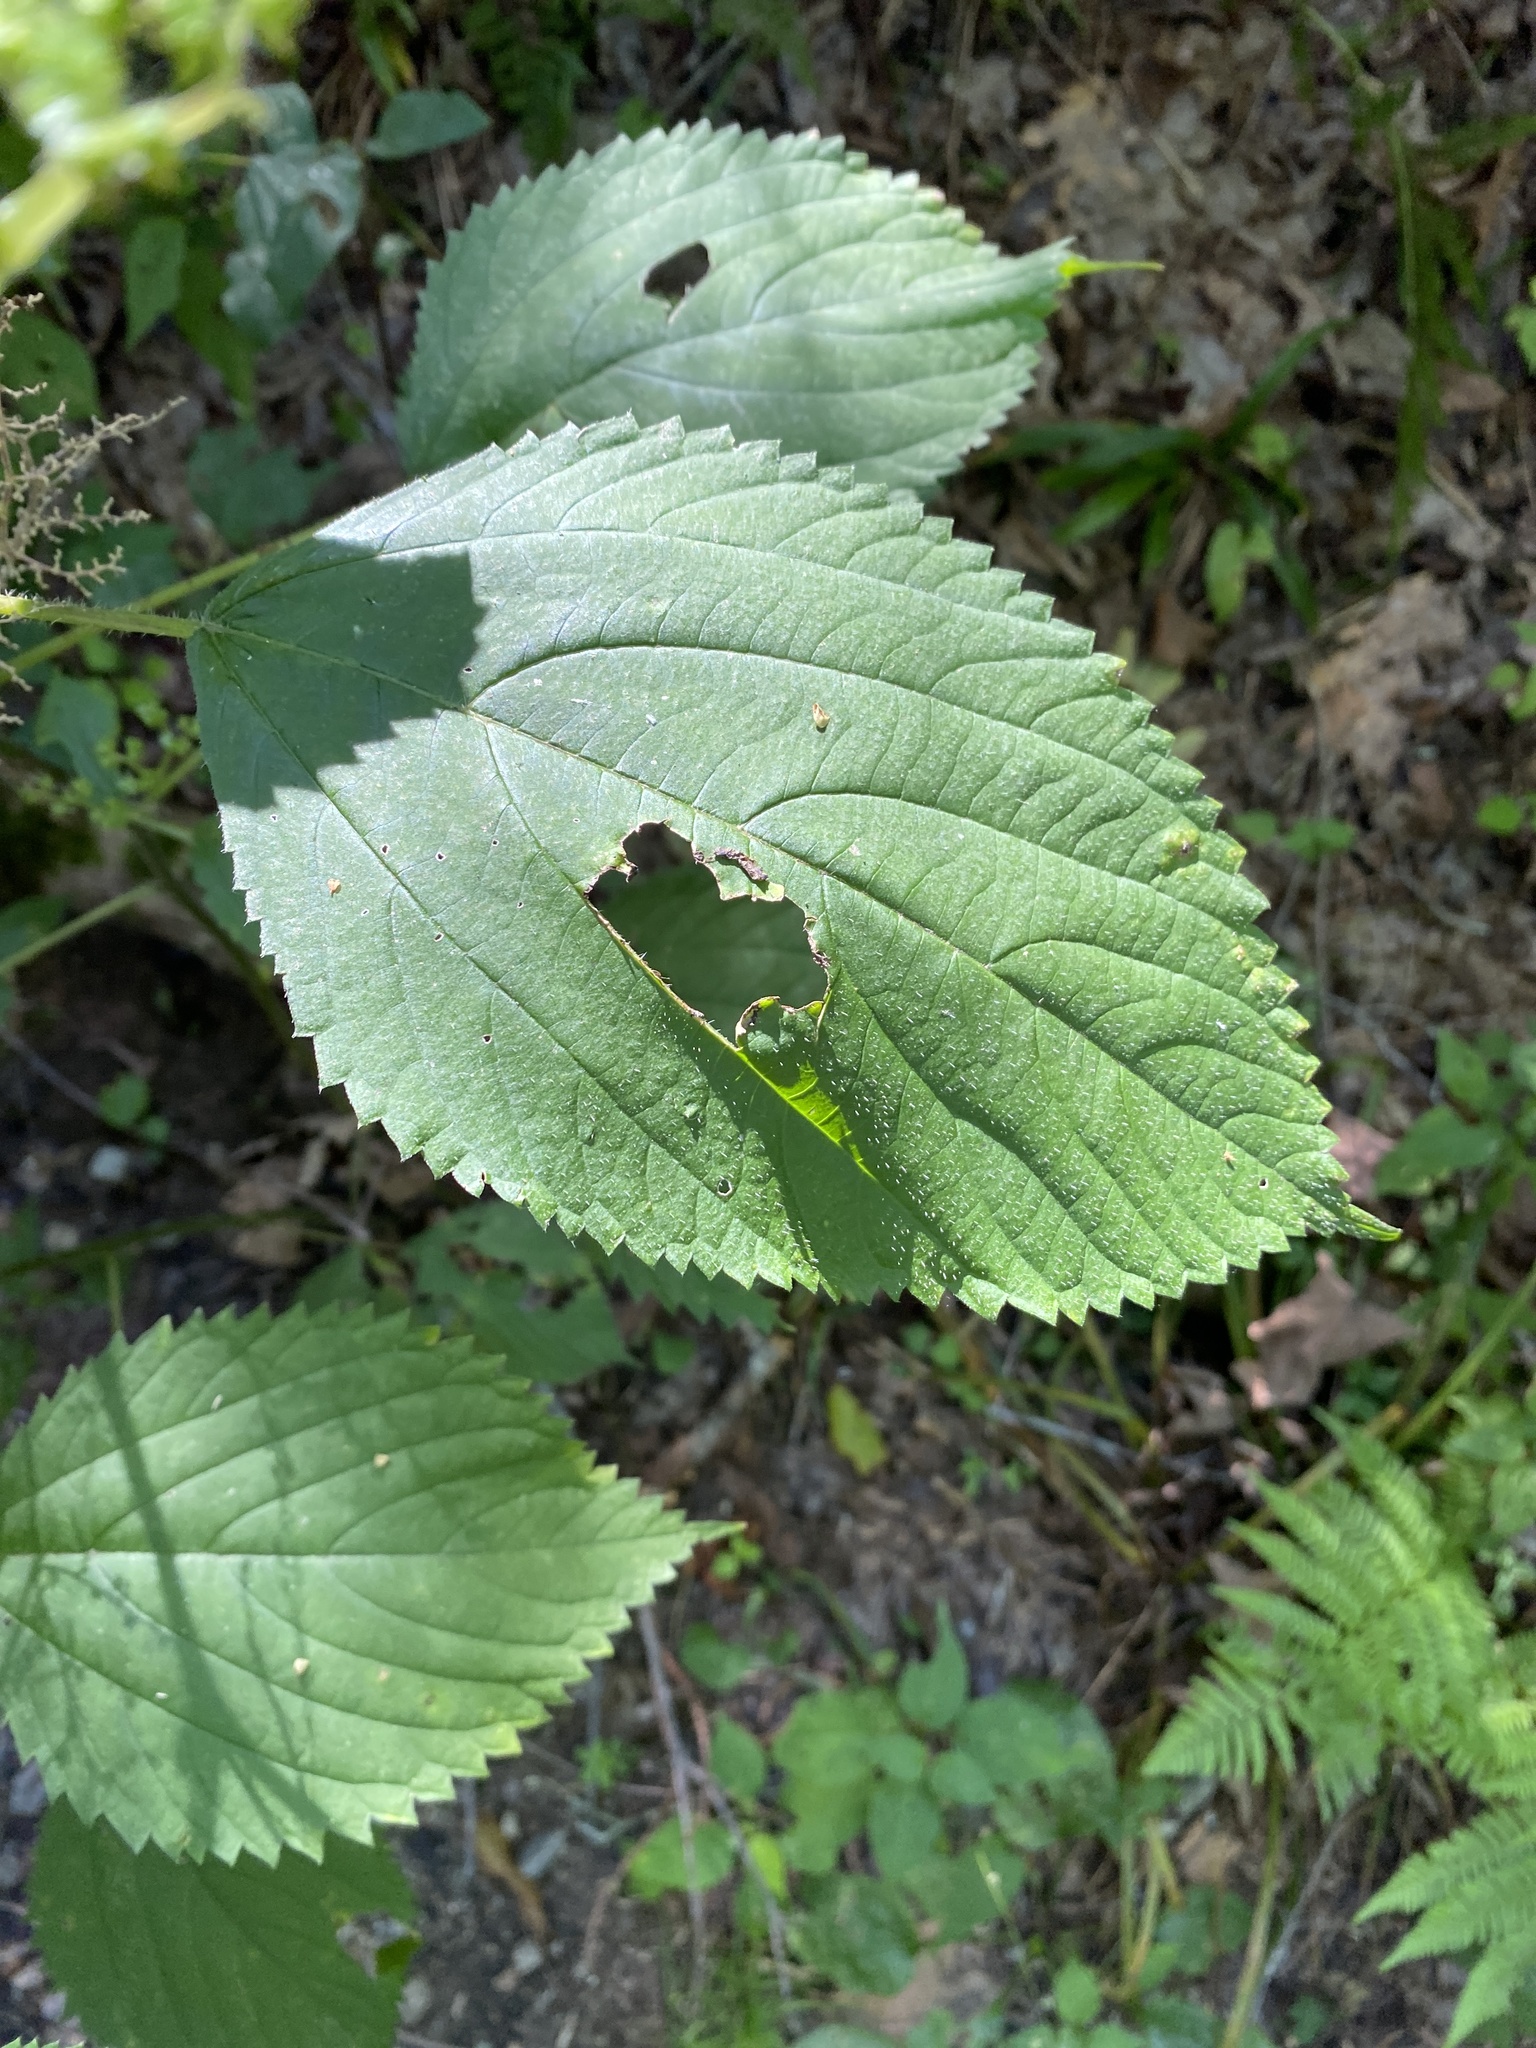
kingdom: Plantae
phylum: Tracheophyta
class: Magnoliopsida
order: Rosales
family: Urticaceae
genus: Laportea
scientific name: Laportea canadensis
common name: Canada nettle
